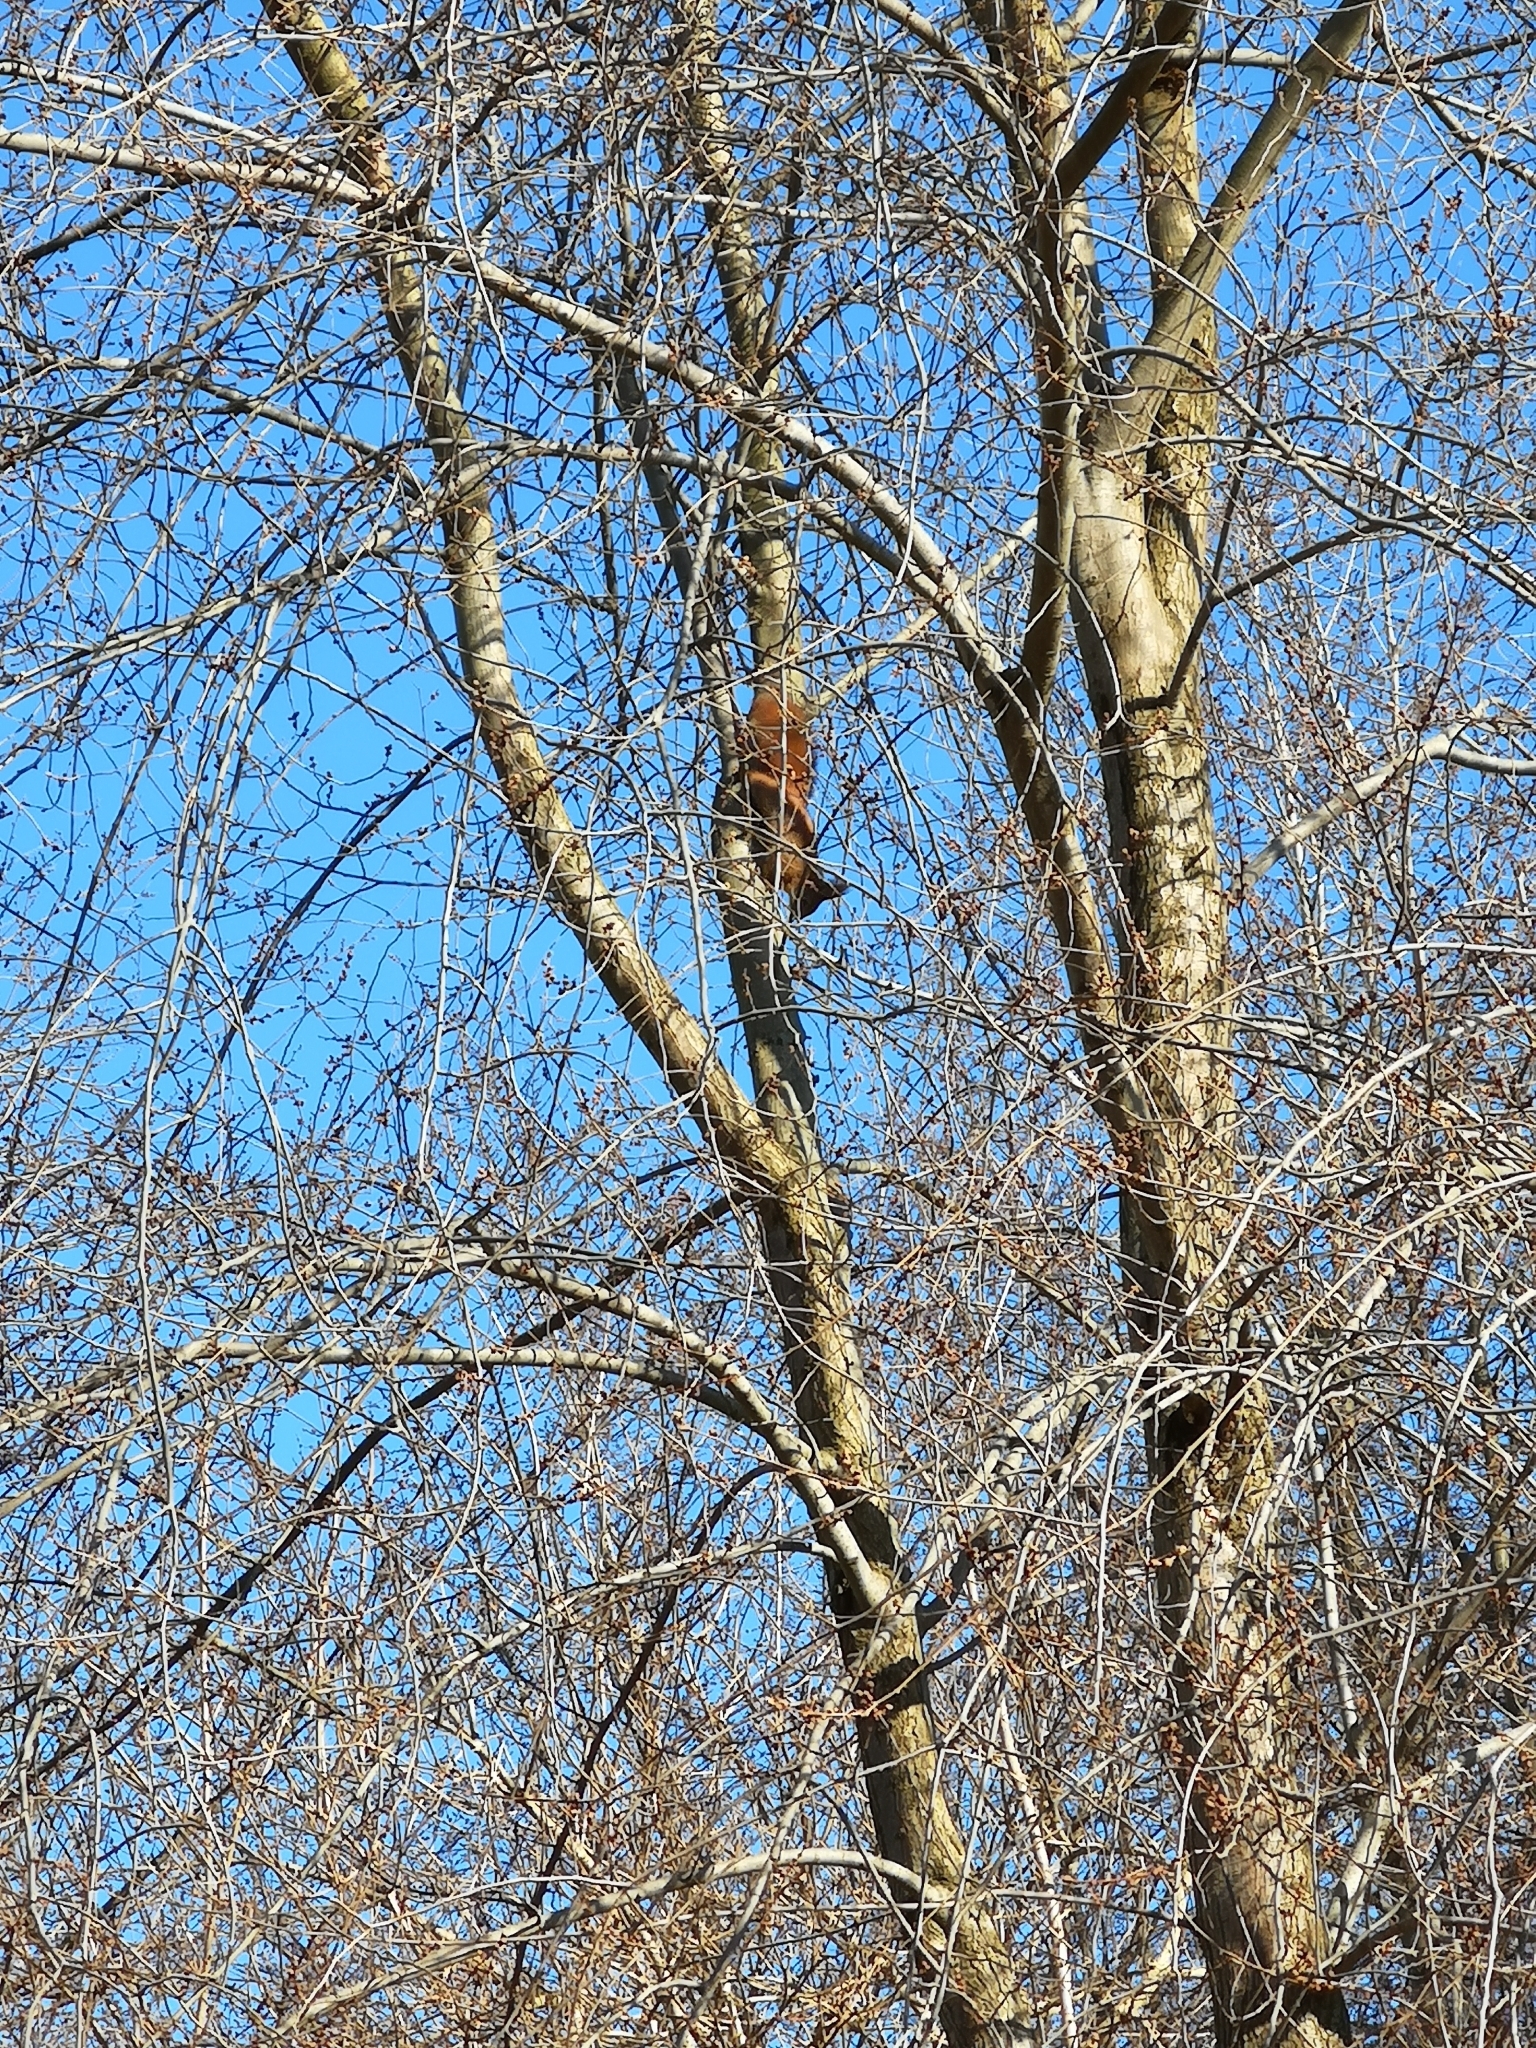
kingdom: Animalia
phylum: Chordata
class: Mammalia
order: Rodentia
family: Sciuridae
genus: Sciurus
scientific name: Sciurus vulgaris
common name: Eurasian red squirrel
